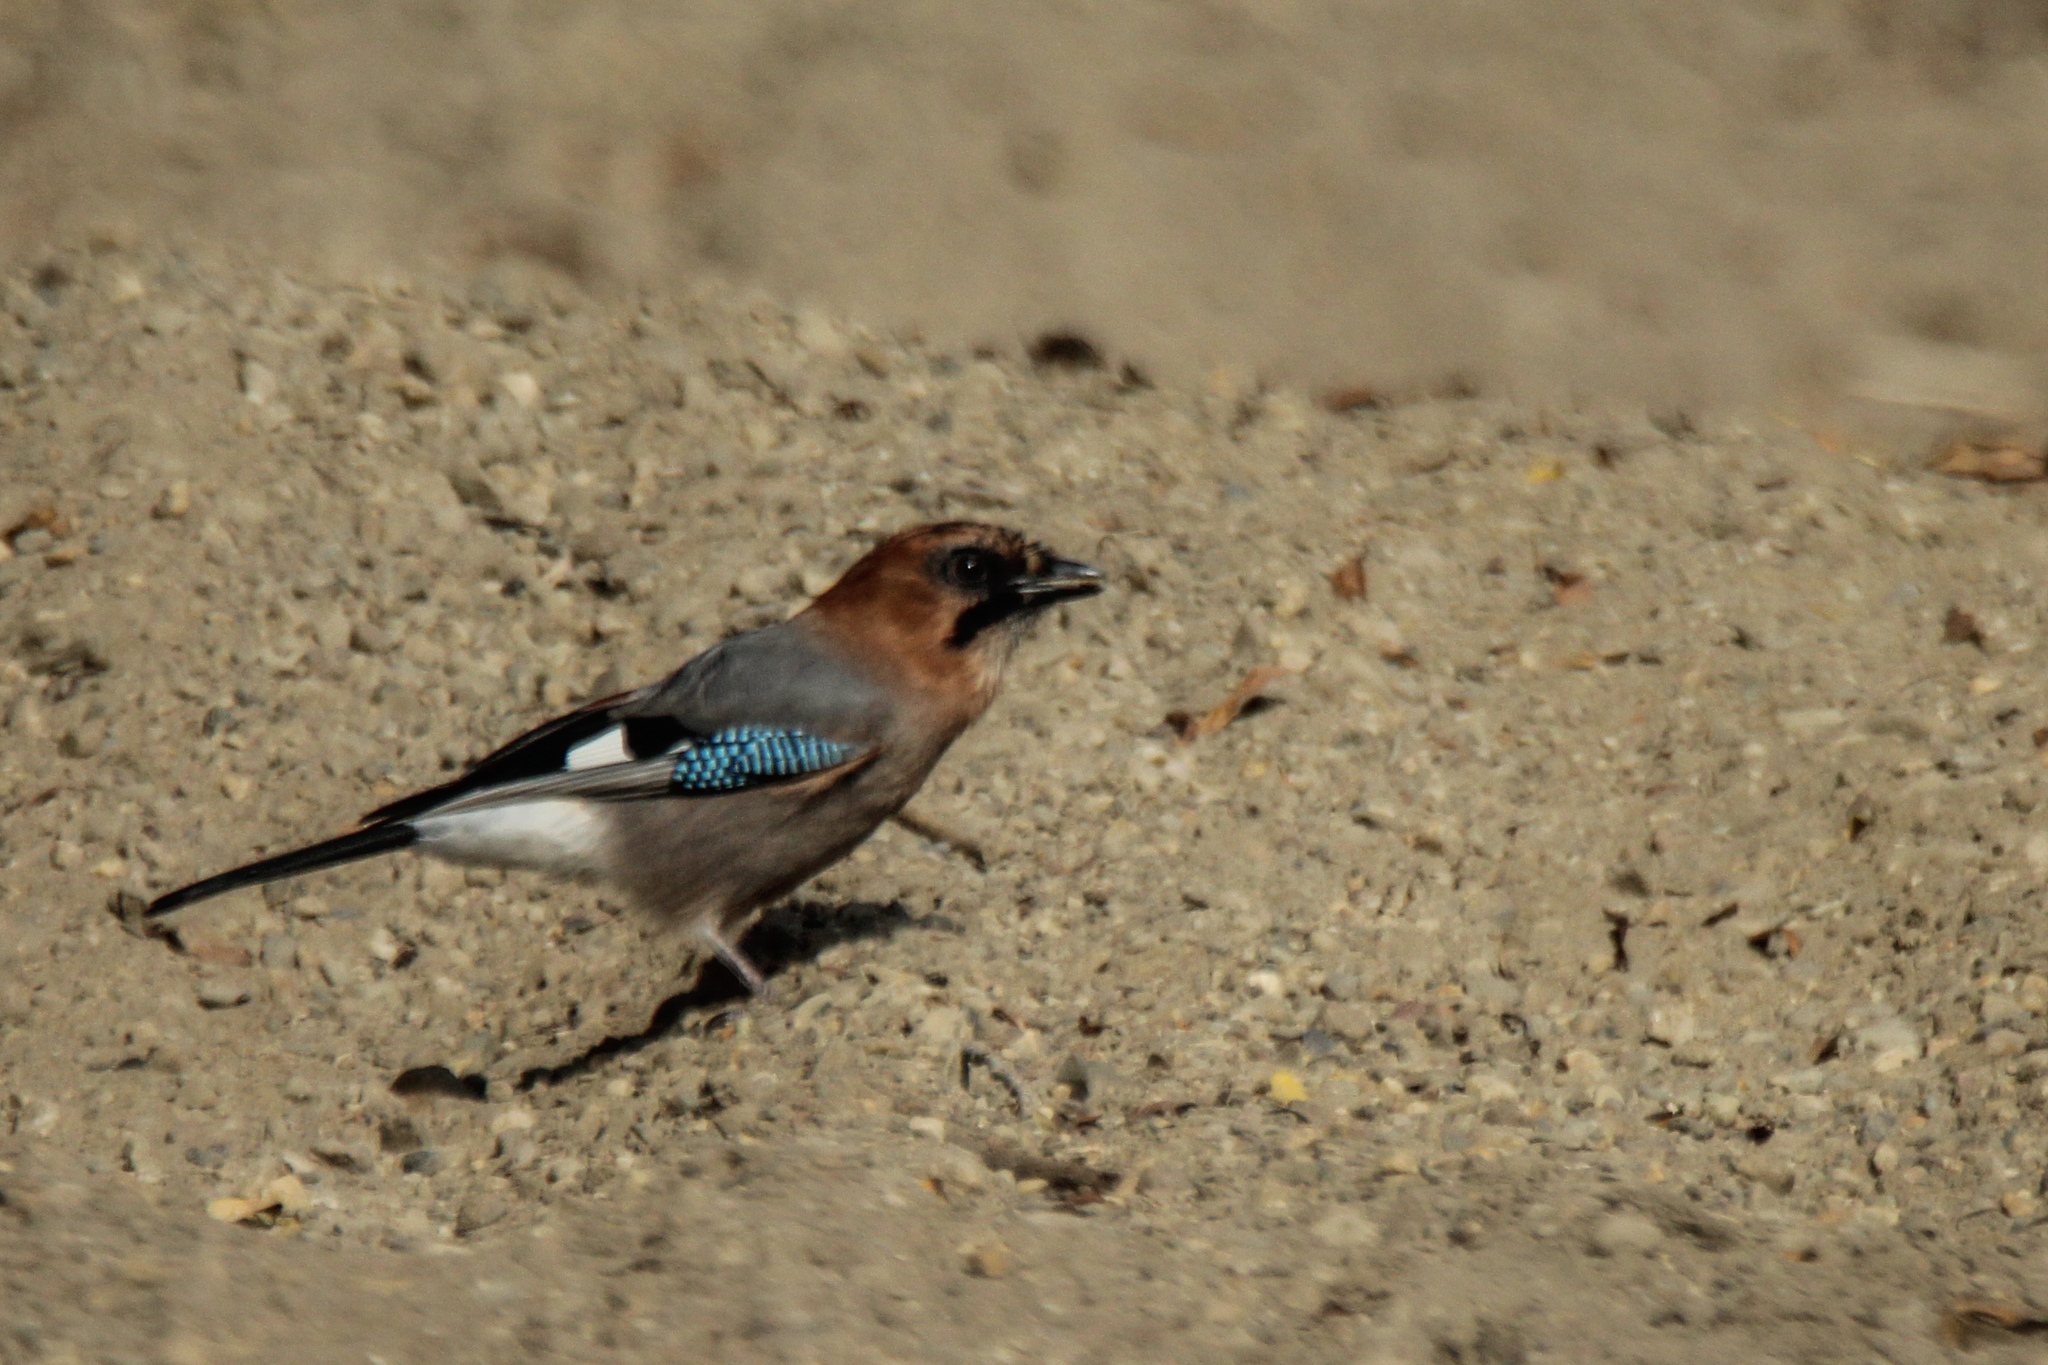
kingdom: Animalia
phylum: Chordata
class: Aves
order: Passeriformes
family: Corvidae
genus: Garrulus
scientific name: Garrulus glandarius
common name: Eurasian jay
